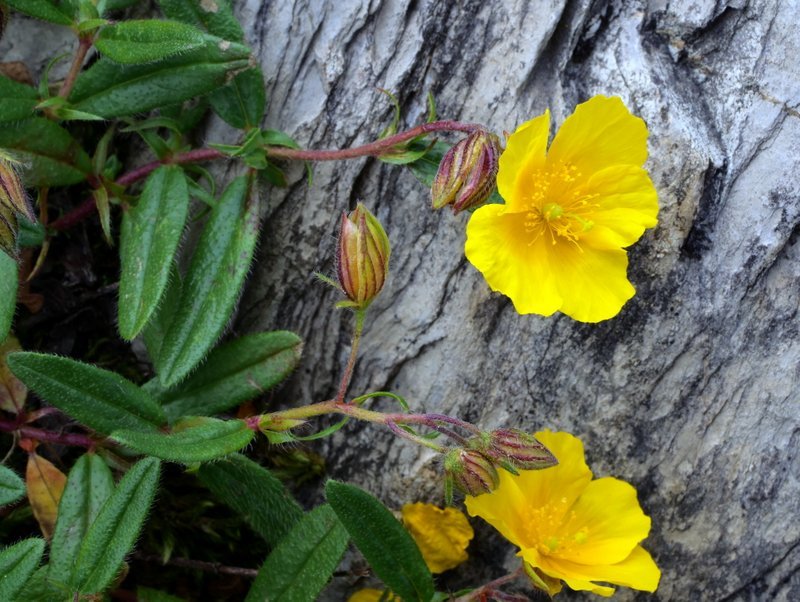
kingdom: Plantae
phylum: Tracheophyta
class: Magnoliopsida
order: Malvales
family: Cistaceae
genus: Helianthemum
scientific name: Helianthemum nummularium
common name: Common rock-rose
